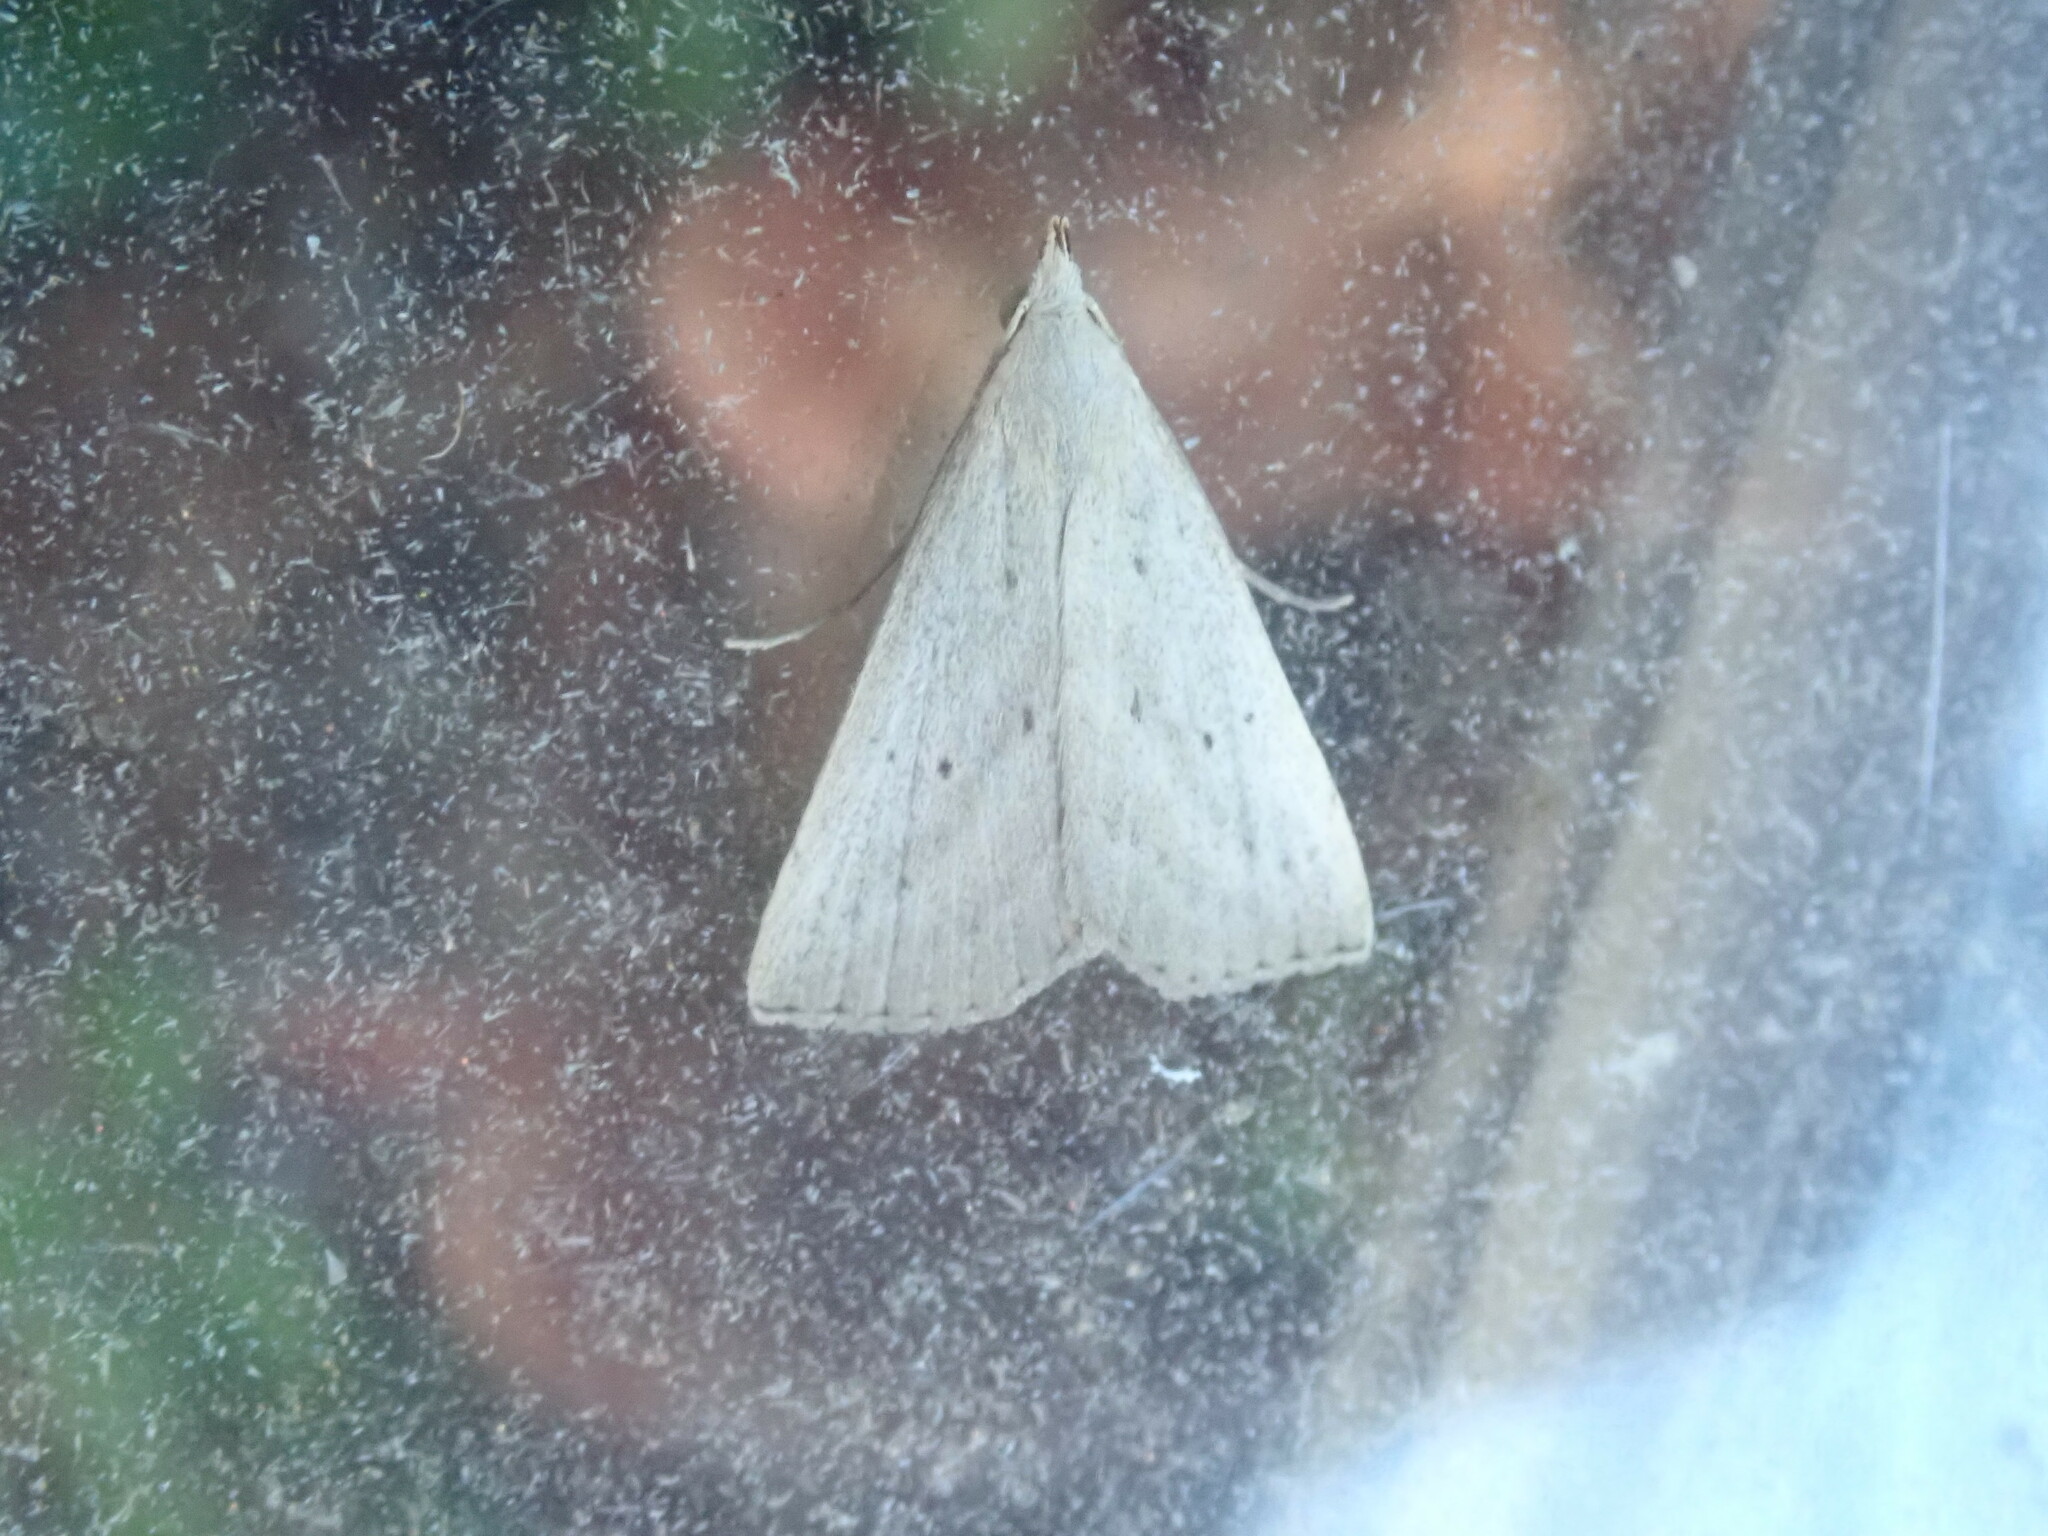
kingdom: Animalia
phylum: Arthropoda
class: Insecta
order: Lepidoptera
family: Erebidae
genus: Macrochilo
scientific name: Macrochilo louisiana
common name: Louisiana macrochilo
